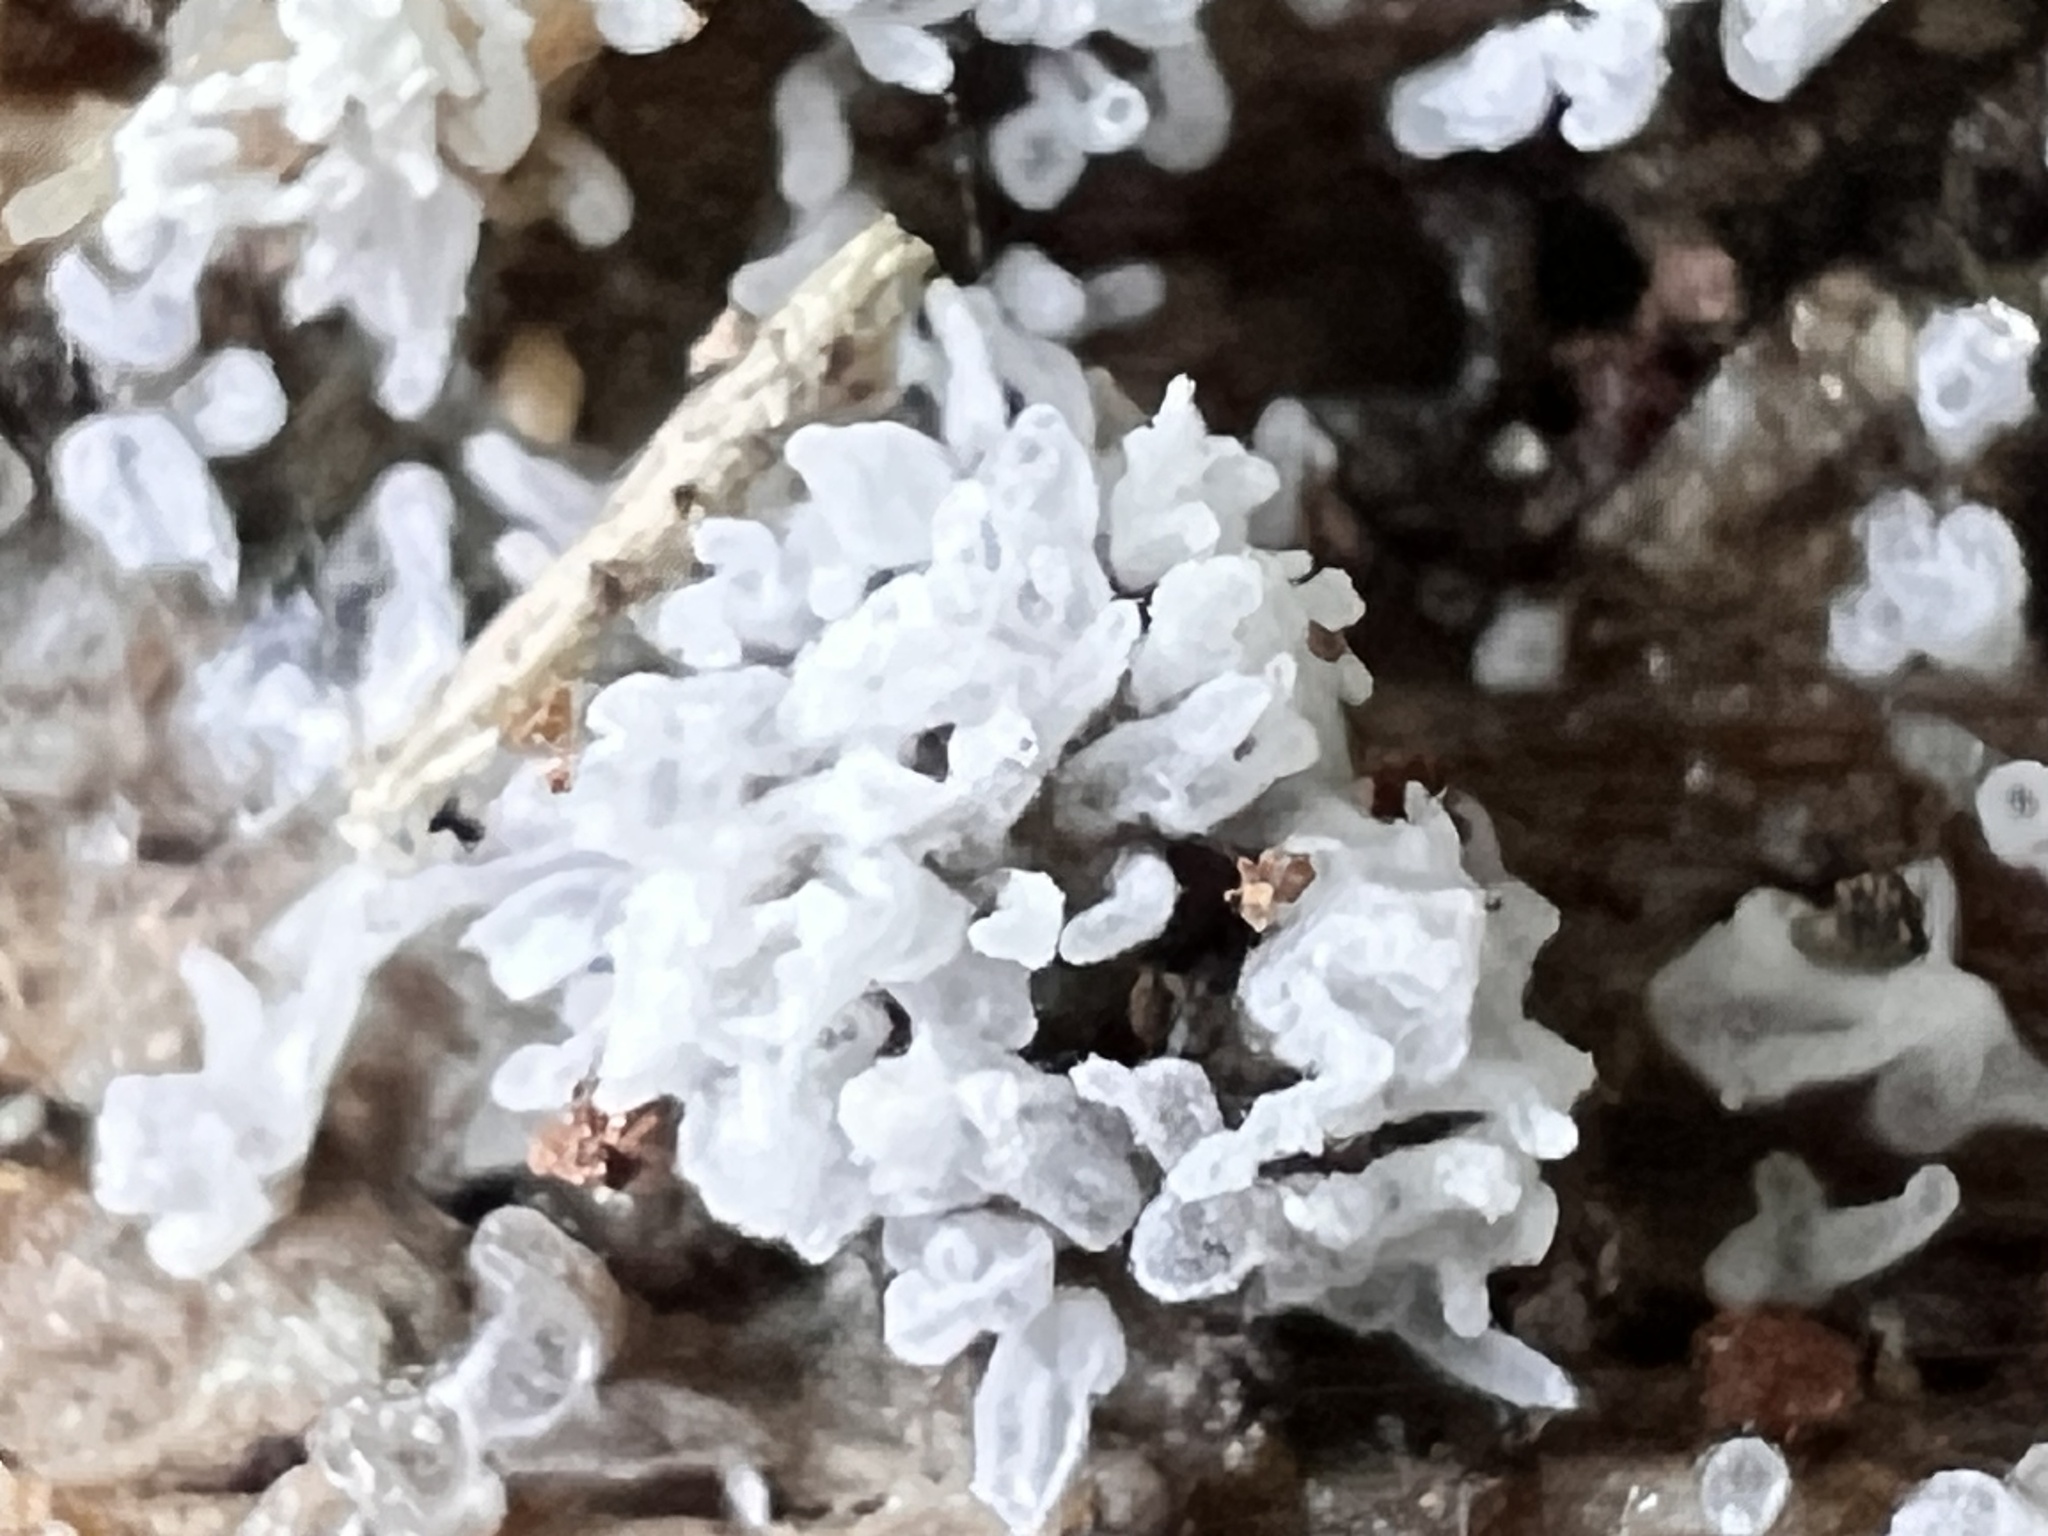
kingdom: Protozoa
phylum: Mycetozoa
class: Protosteliomycetes
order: Ceratiomyxales
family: Ceratiomyxaceae
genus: Ceratiomyxa
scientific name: Ceratiomyxa fruticulosa
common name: Honeycomb coral slime mold
